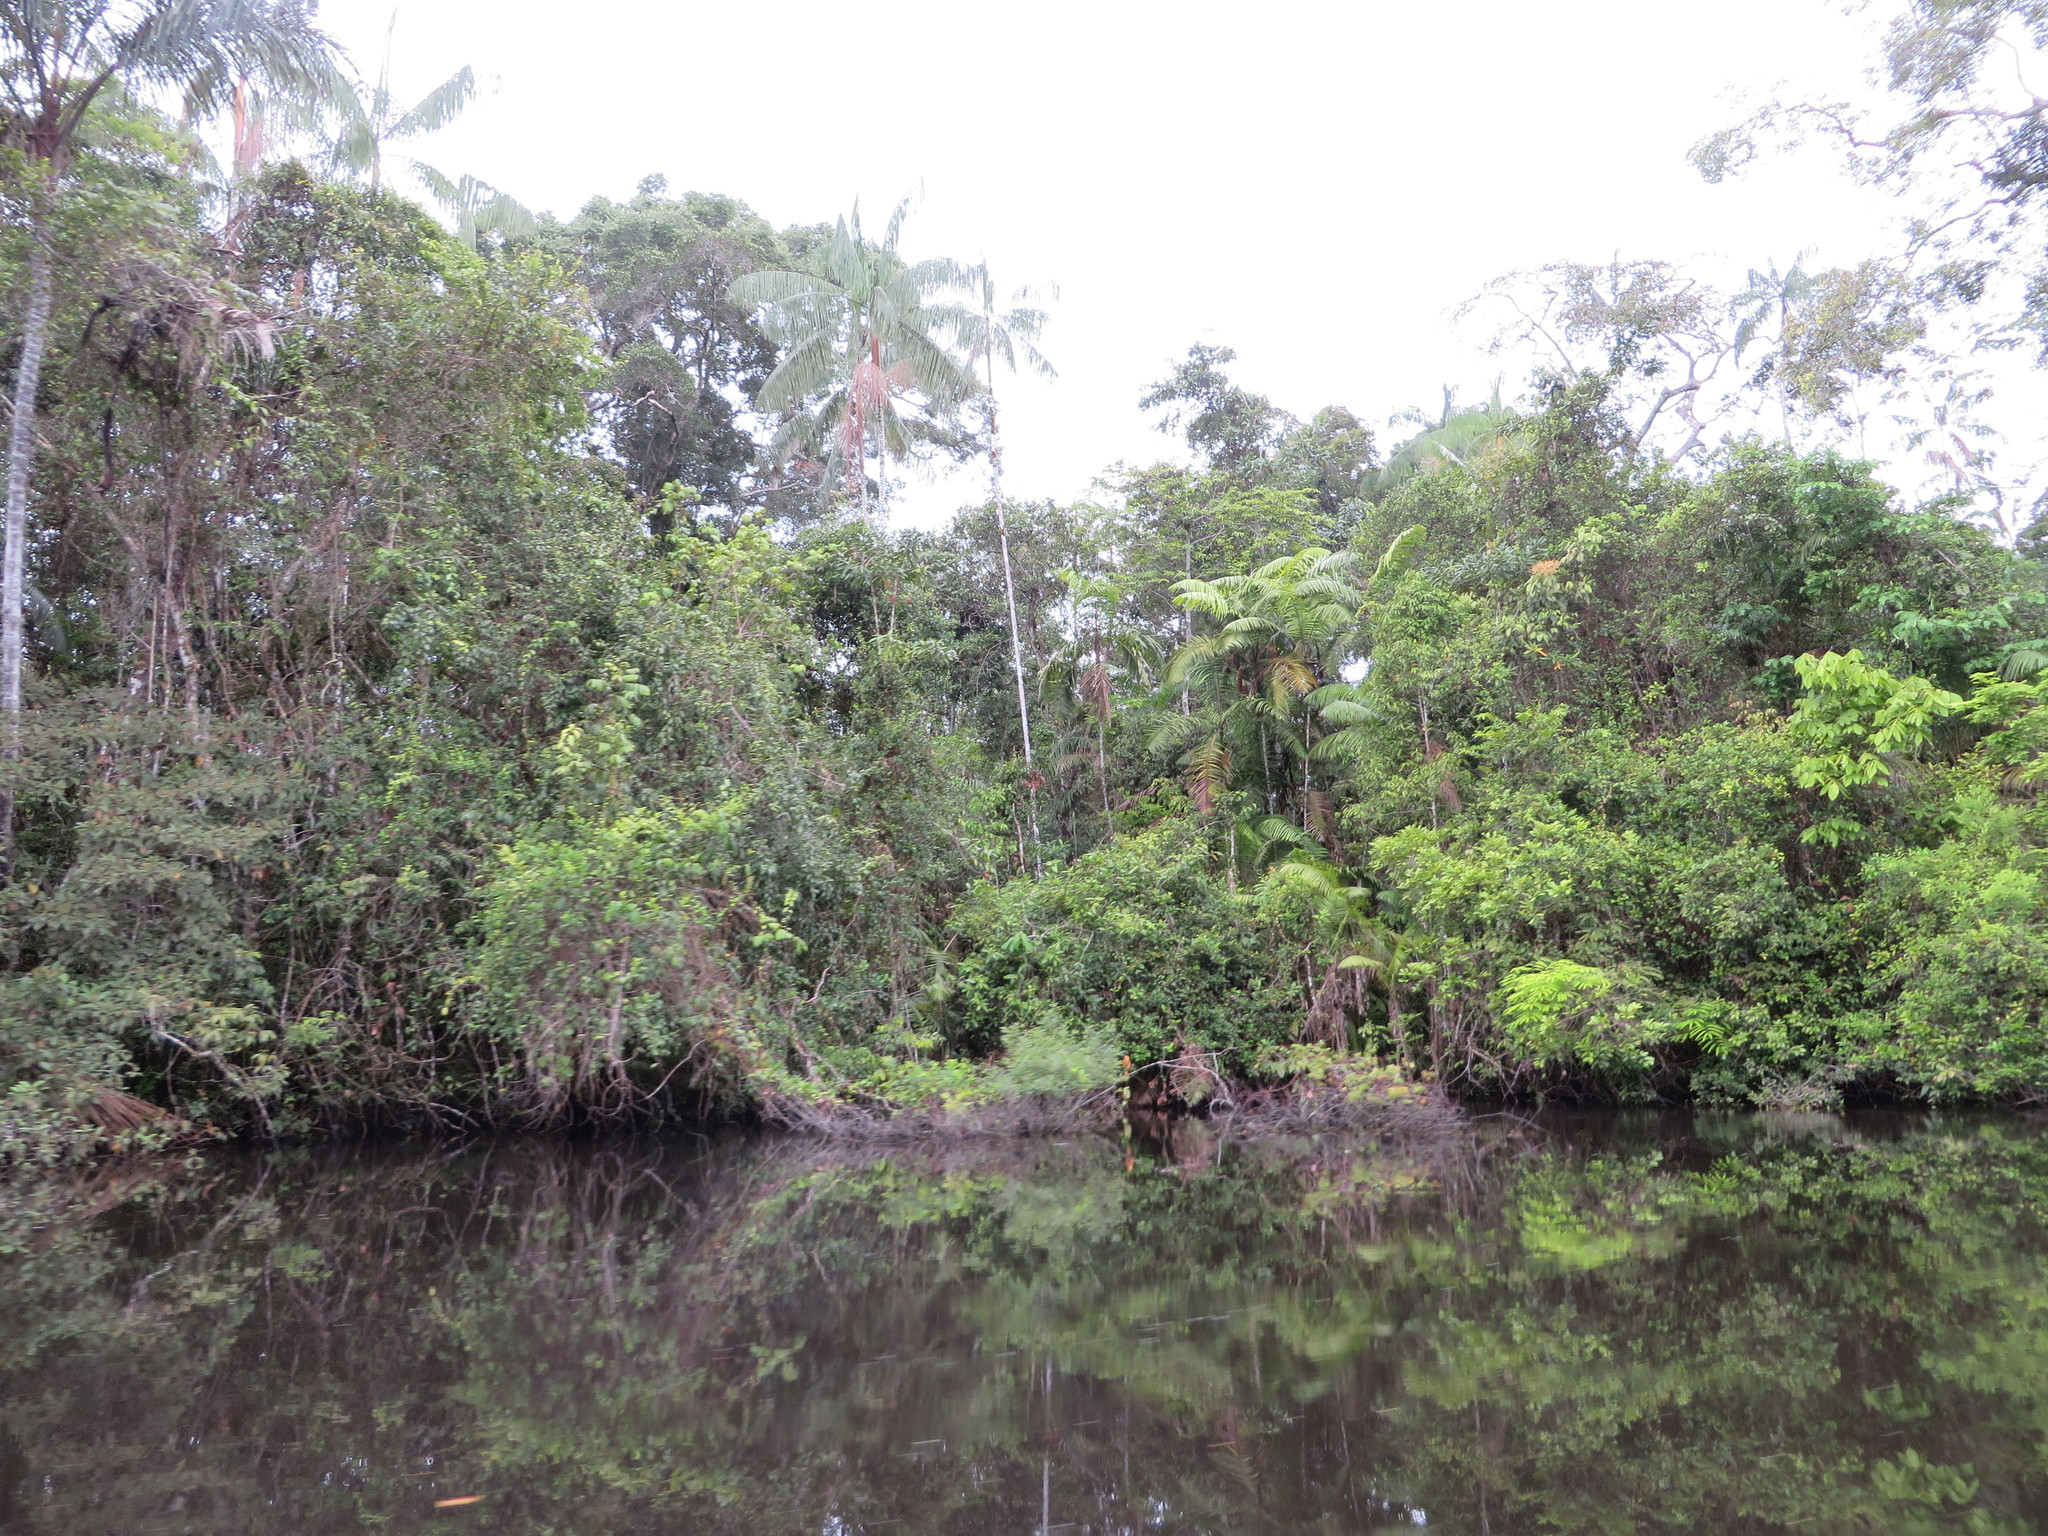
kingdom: Plantae
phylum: Tracheophyta
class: Liliopsida
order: Arecales
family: Arecaceae
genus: Euterpe
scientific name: Euterpe precatoria
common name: Mountain-cabbage
